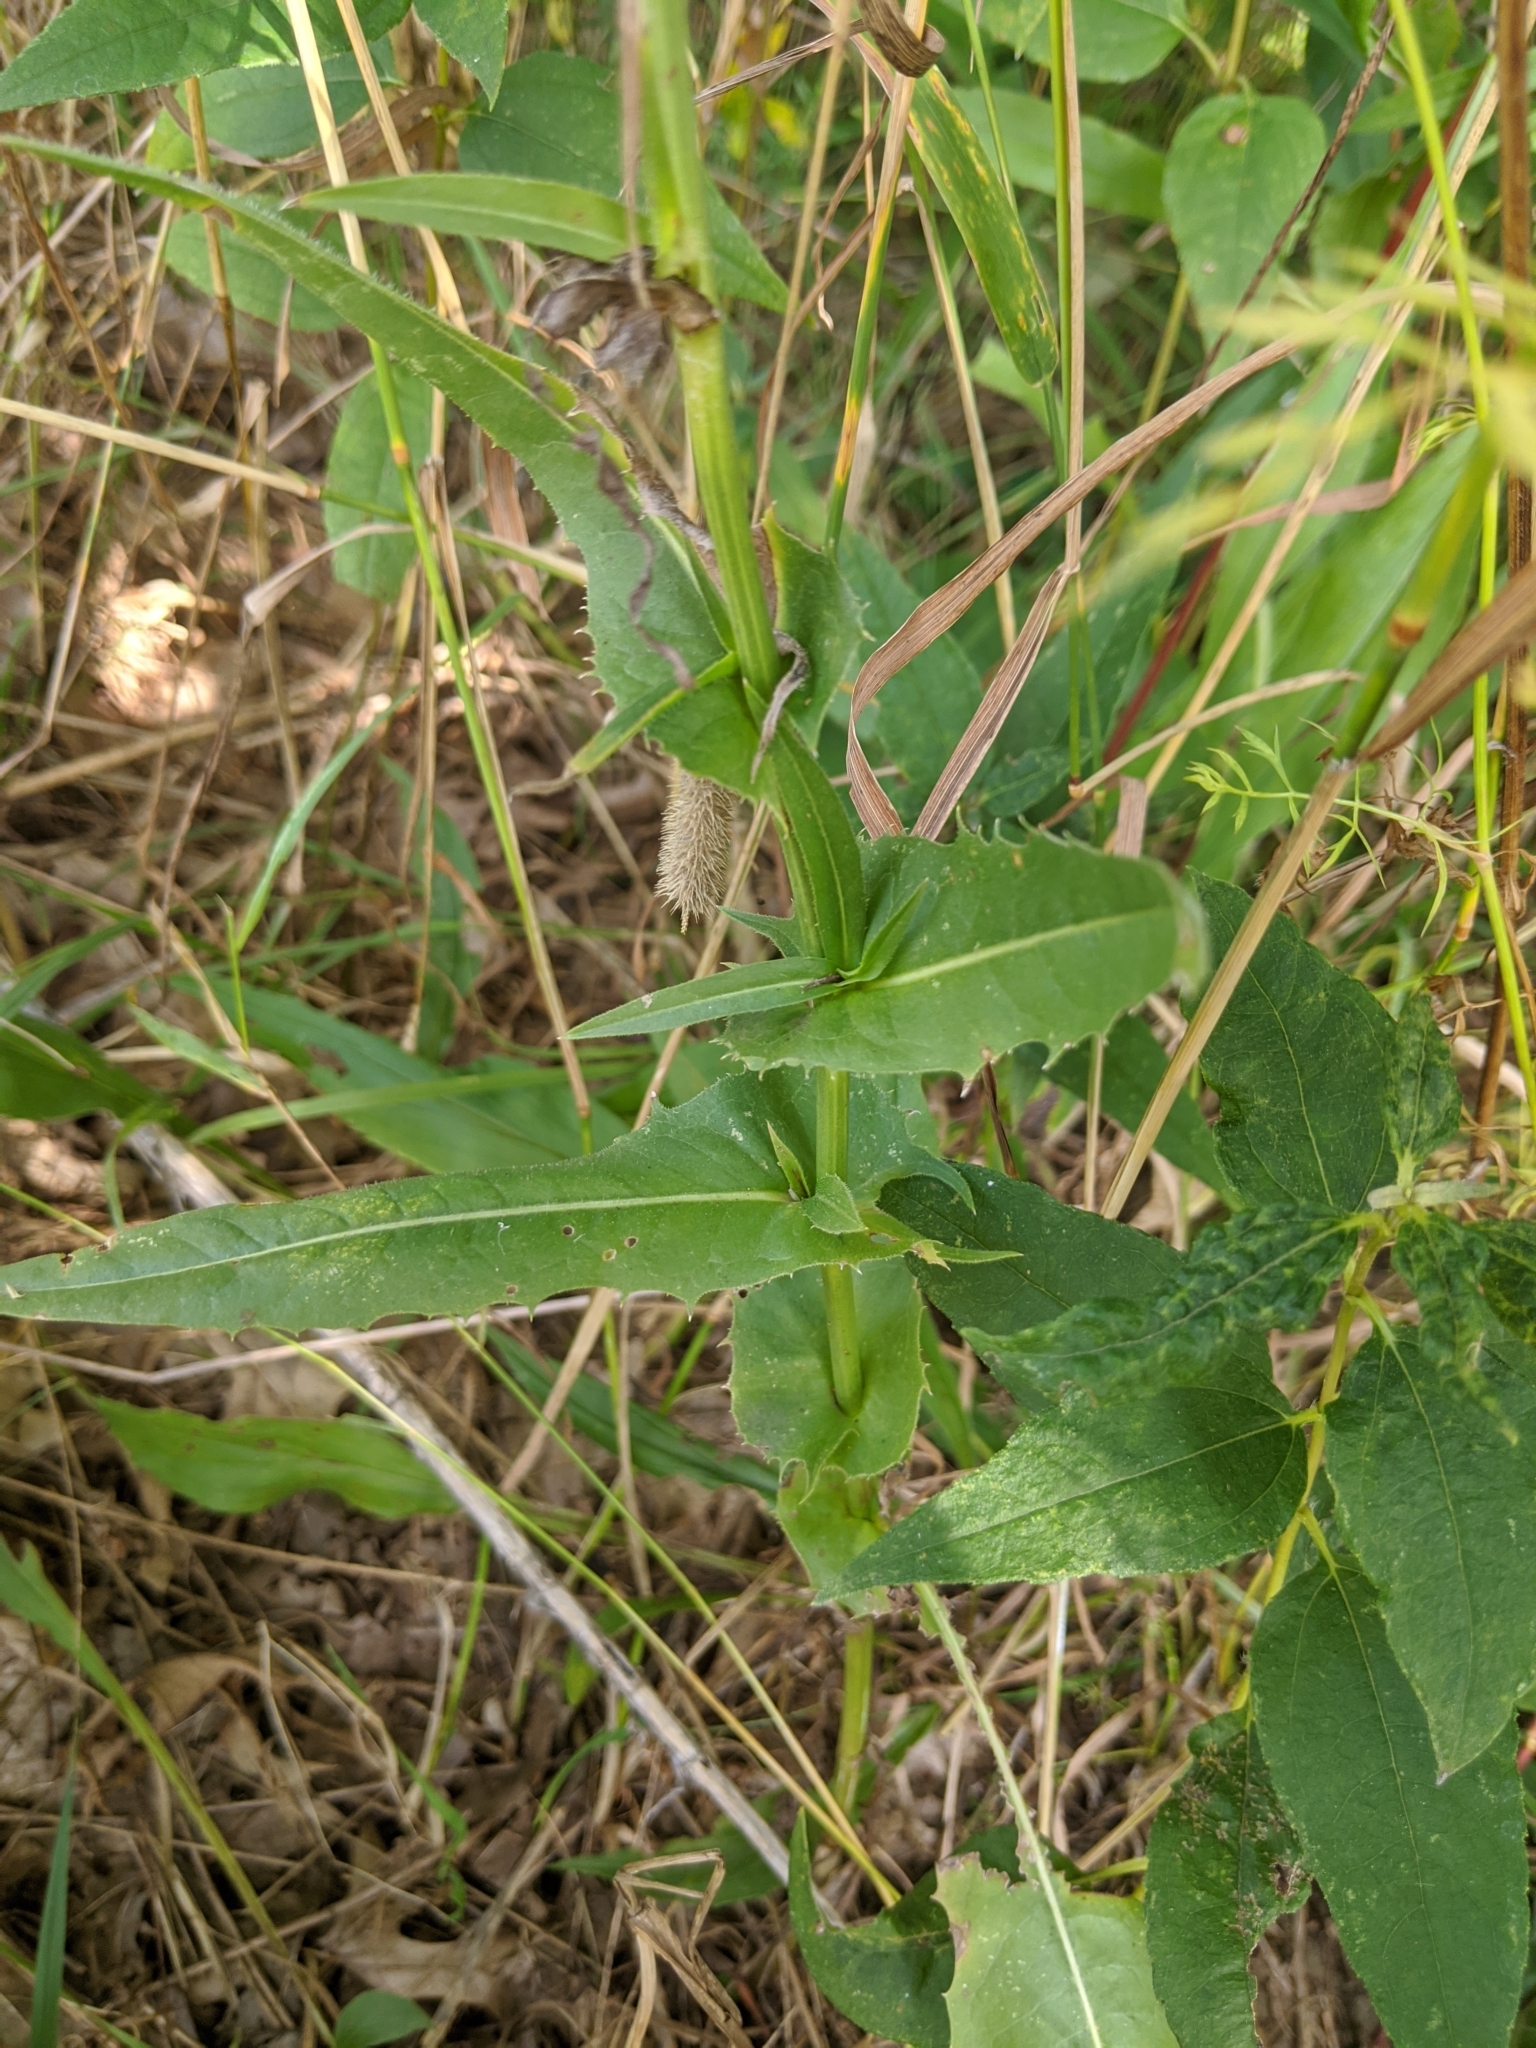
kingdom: Plantae
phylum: Tracheophyta
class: Magnoliopsida
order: Asterales
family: Asteraceae
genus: Cichorium
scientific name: Cichorium intybus
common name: Chicory
